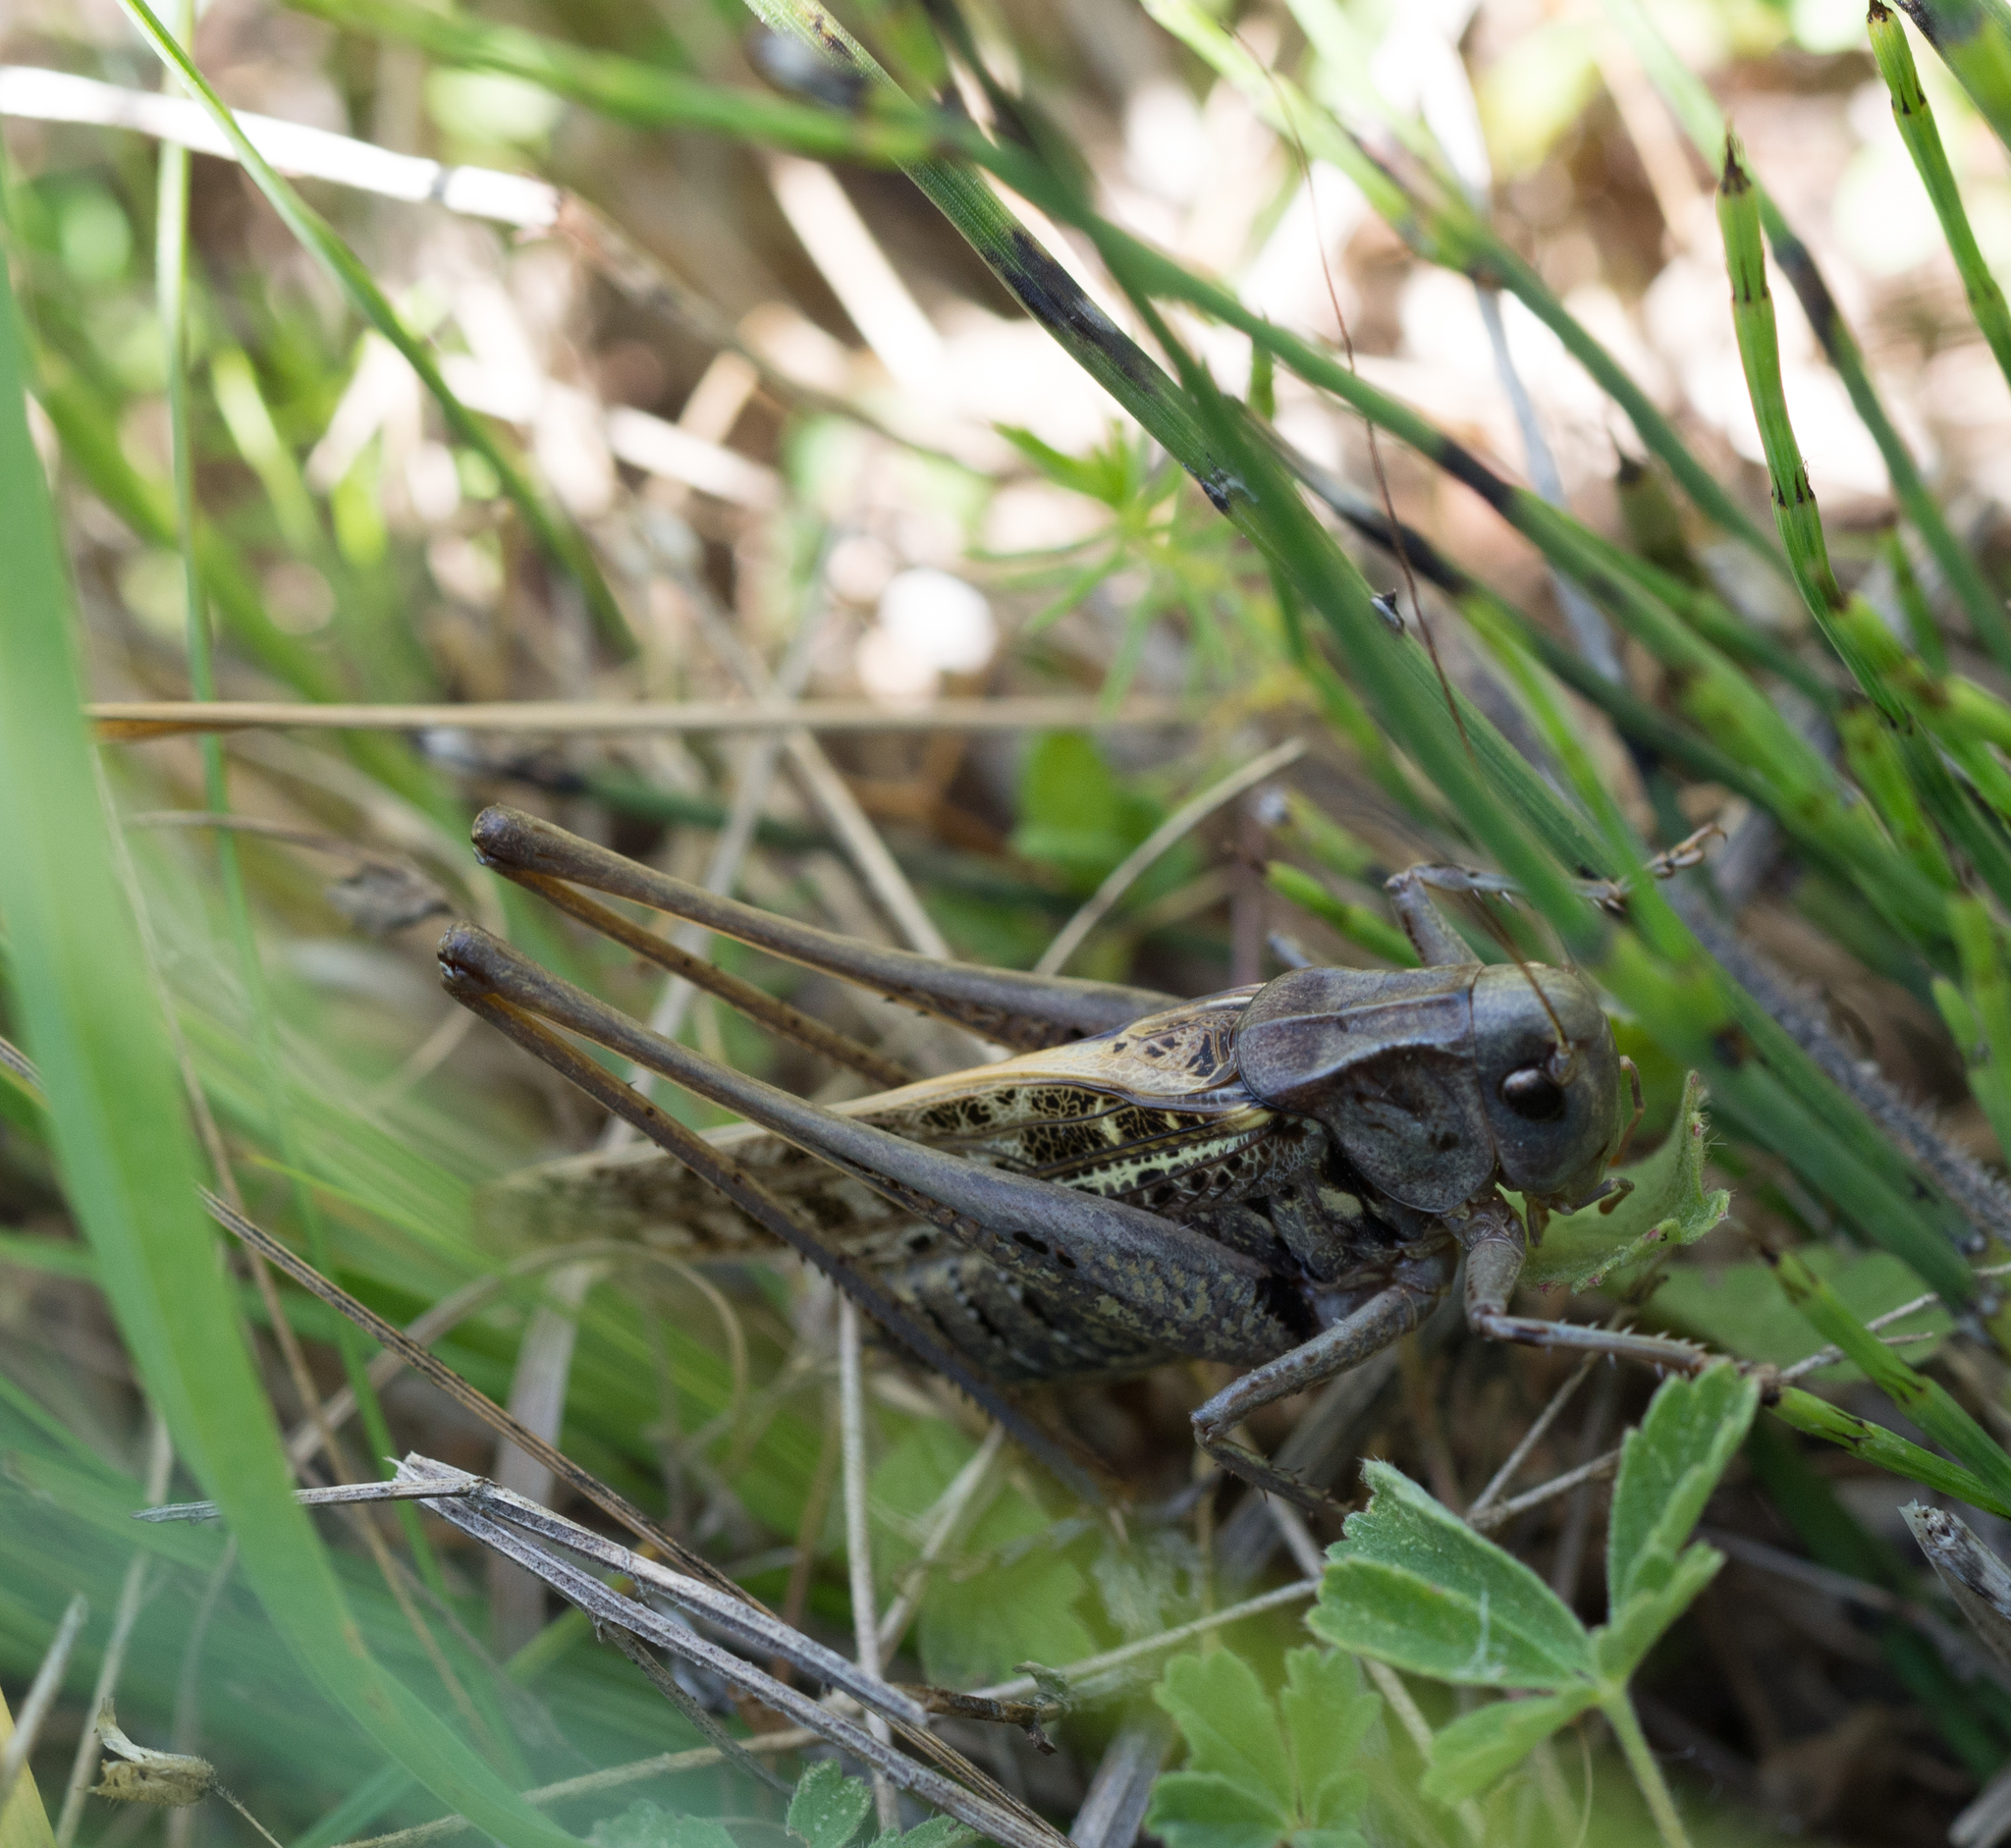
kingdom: Animalia
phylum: Arthropoda
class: Insecta
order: Orthoptera
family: Tettigoniidae
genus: Decticus
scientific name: Decticus verrucivorus
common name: Wart-biter
